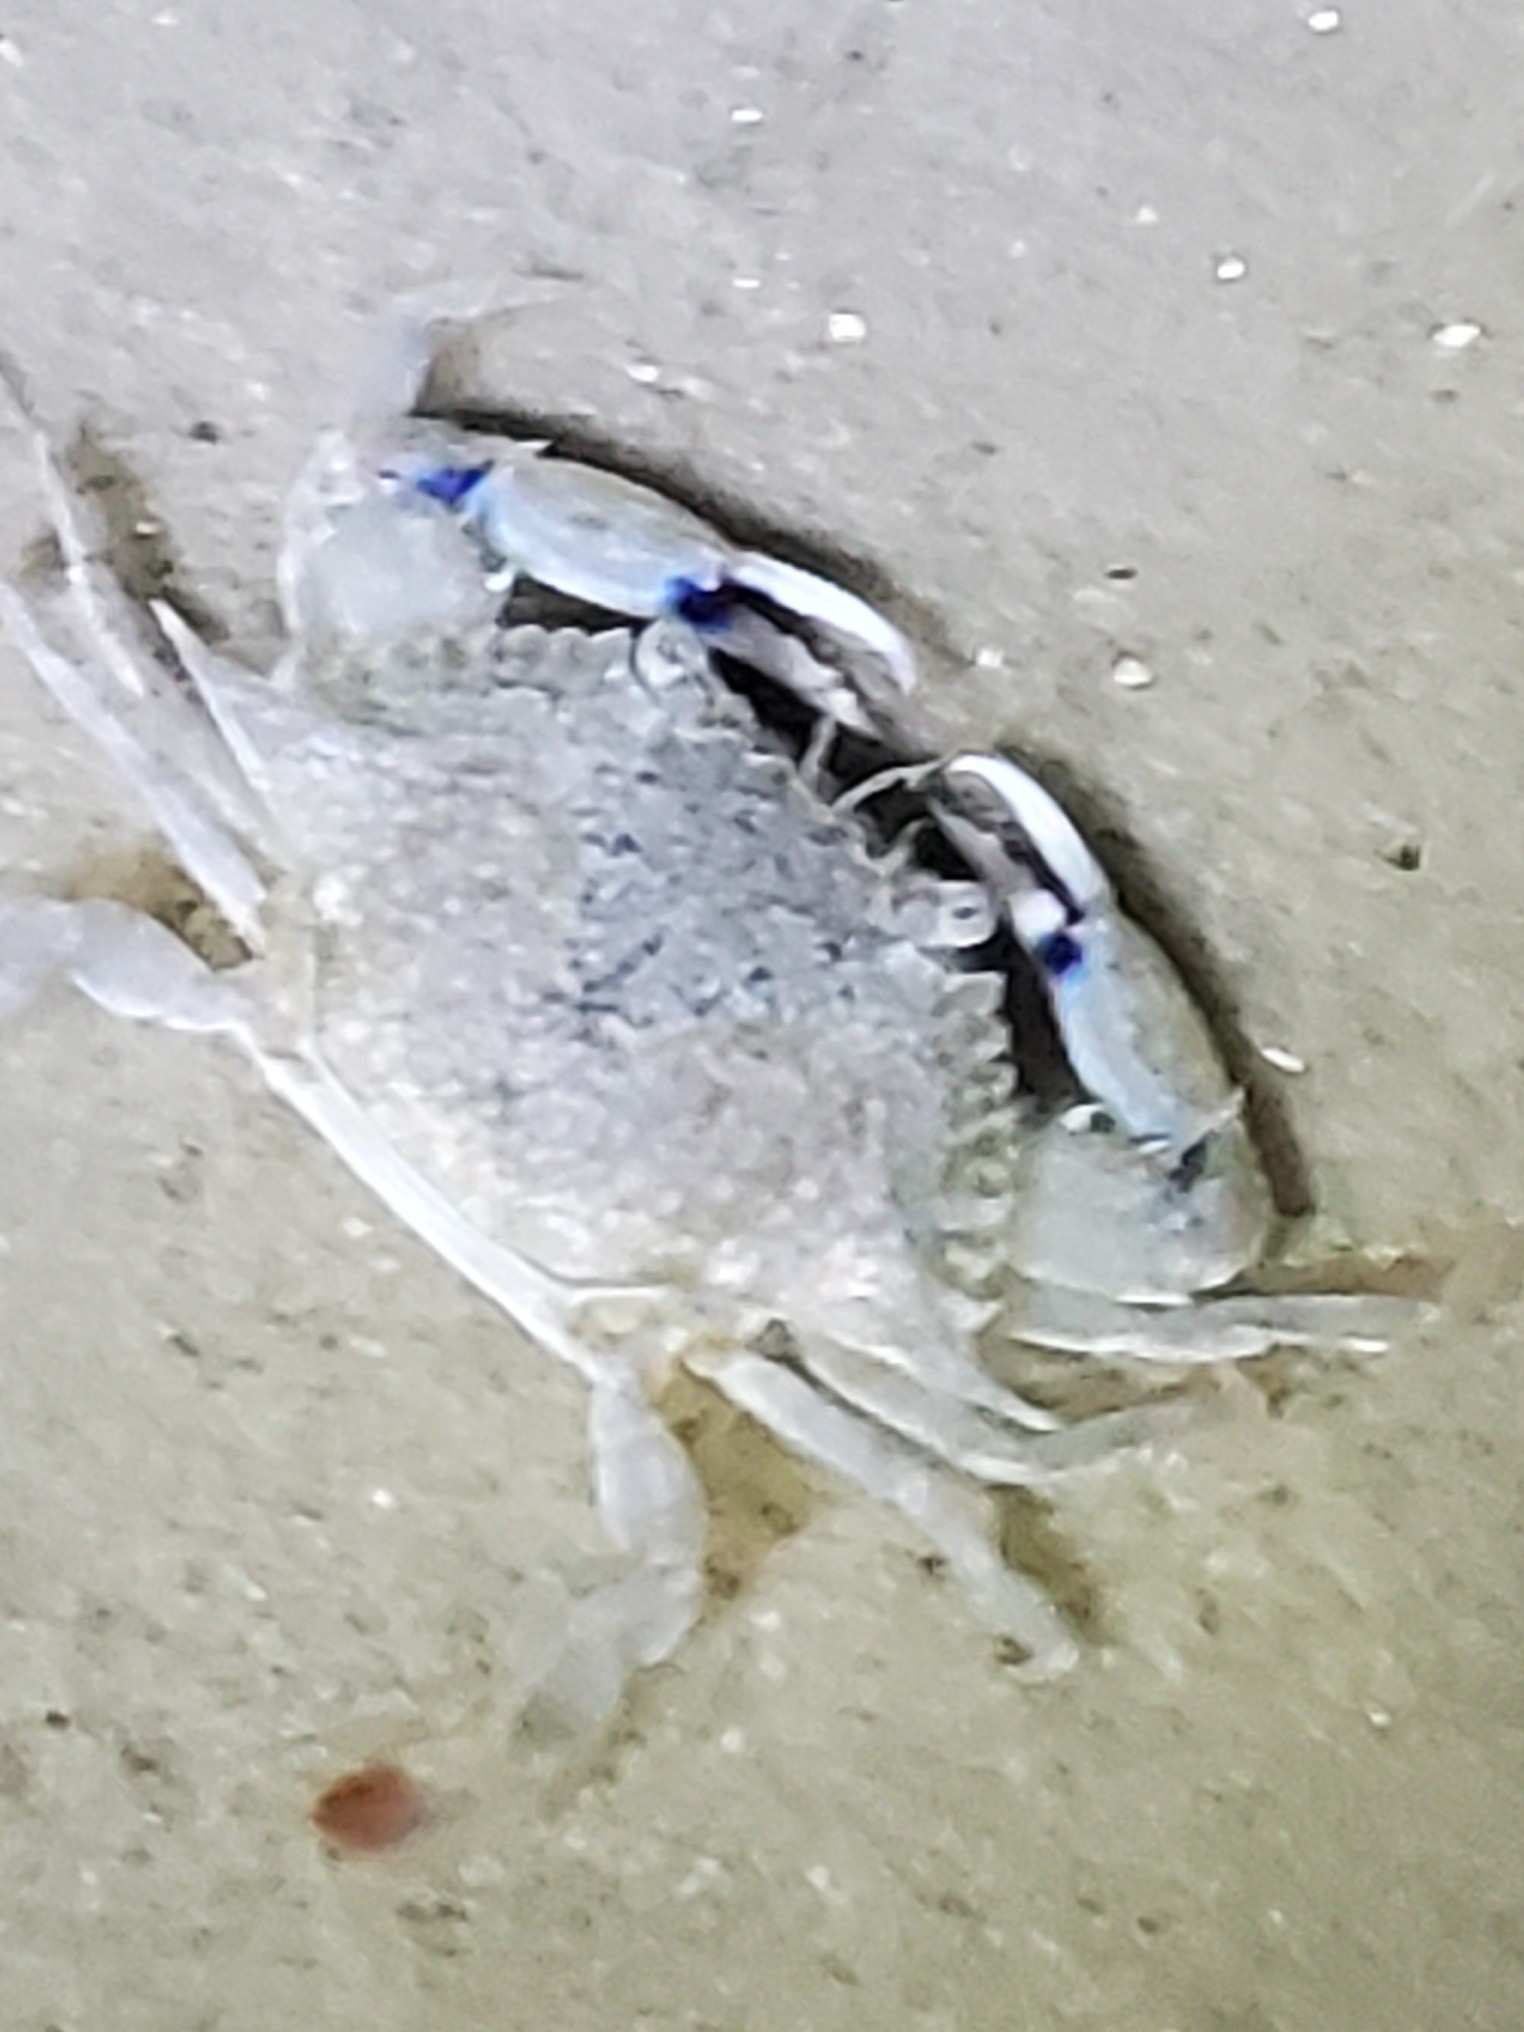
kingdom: Animalia
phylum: Arthropoda
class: Malacostraca
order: Decapoda
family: Portunidae
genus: Callinectes
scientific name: Callinectes sapidus
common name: Blue crab
